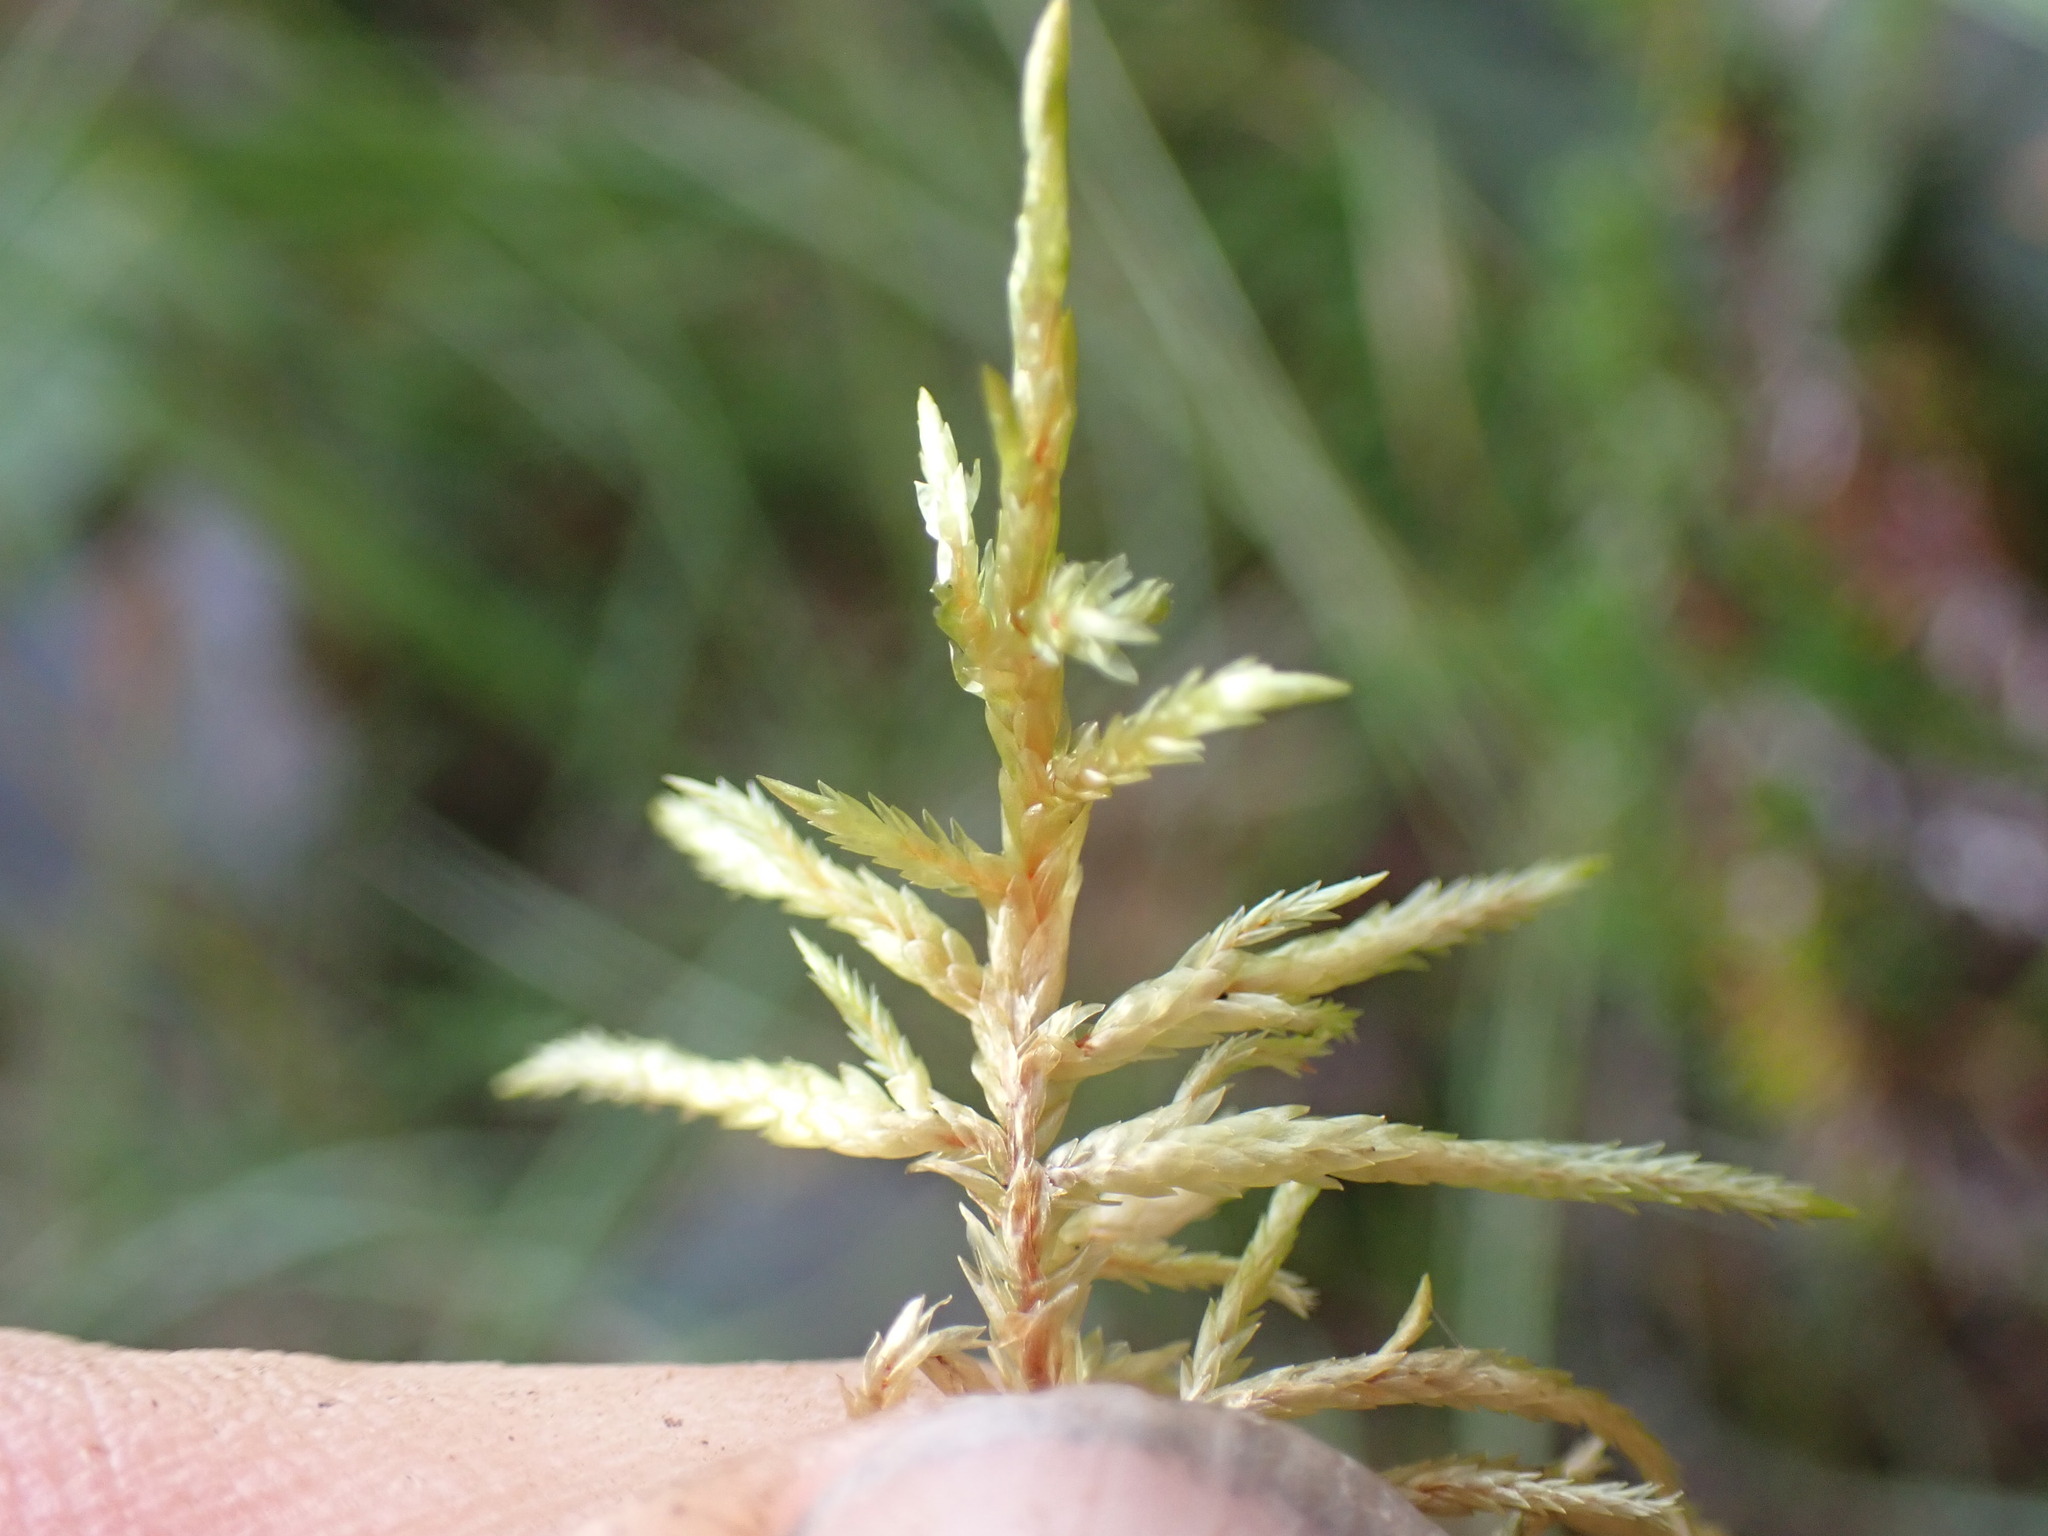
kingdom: Plantae
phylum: Bryophyta
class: Bryopsida
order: Hypnales
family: Hylocomiaceae
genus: Pleurozium
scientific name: Pleurozium schreberi
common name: Red-stemmed feather moss
